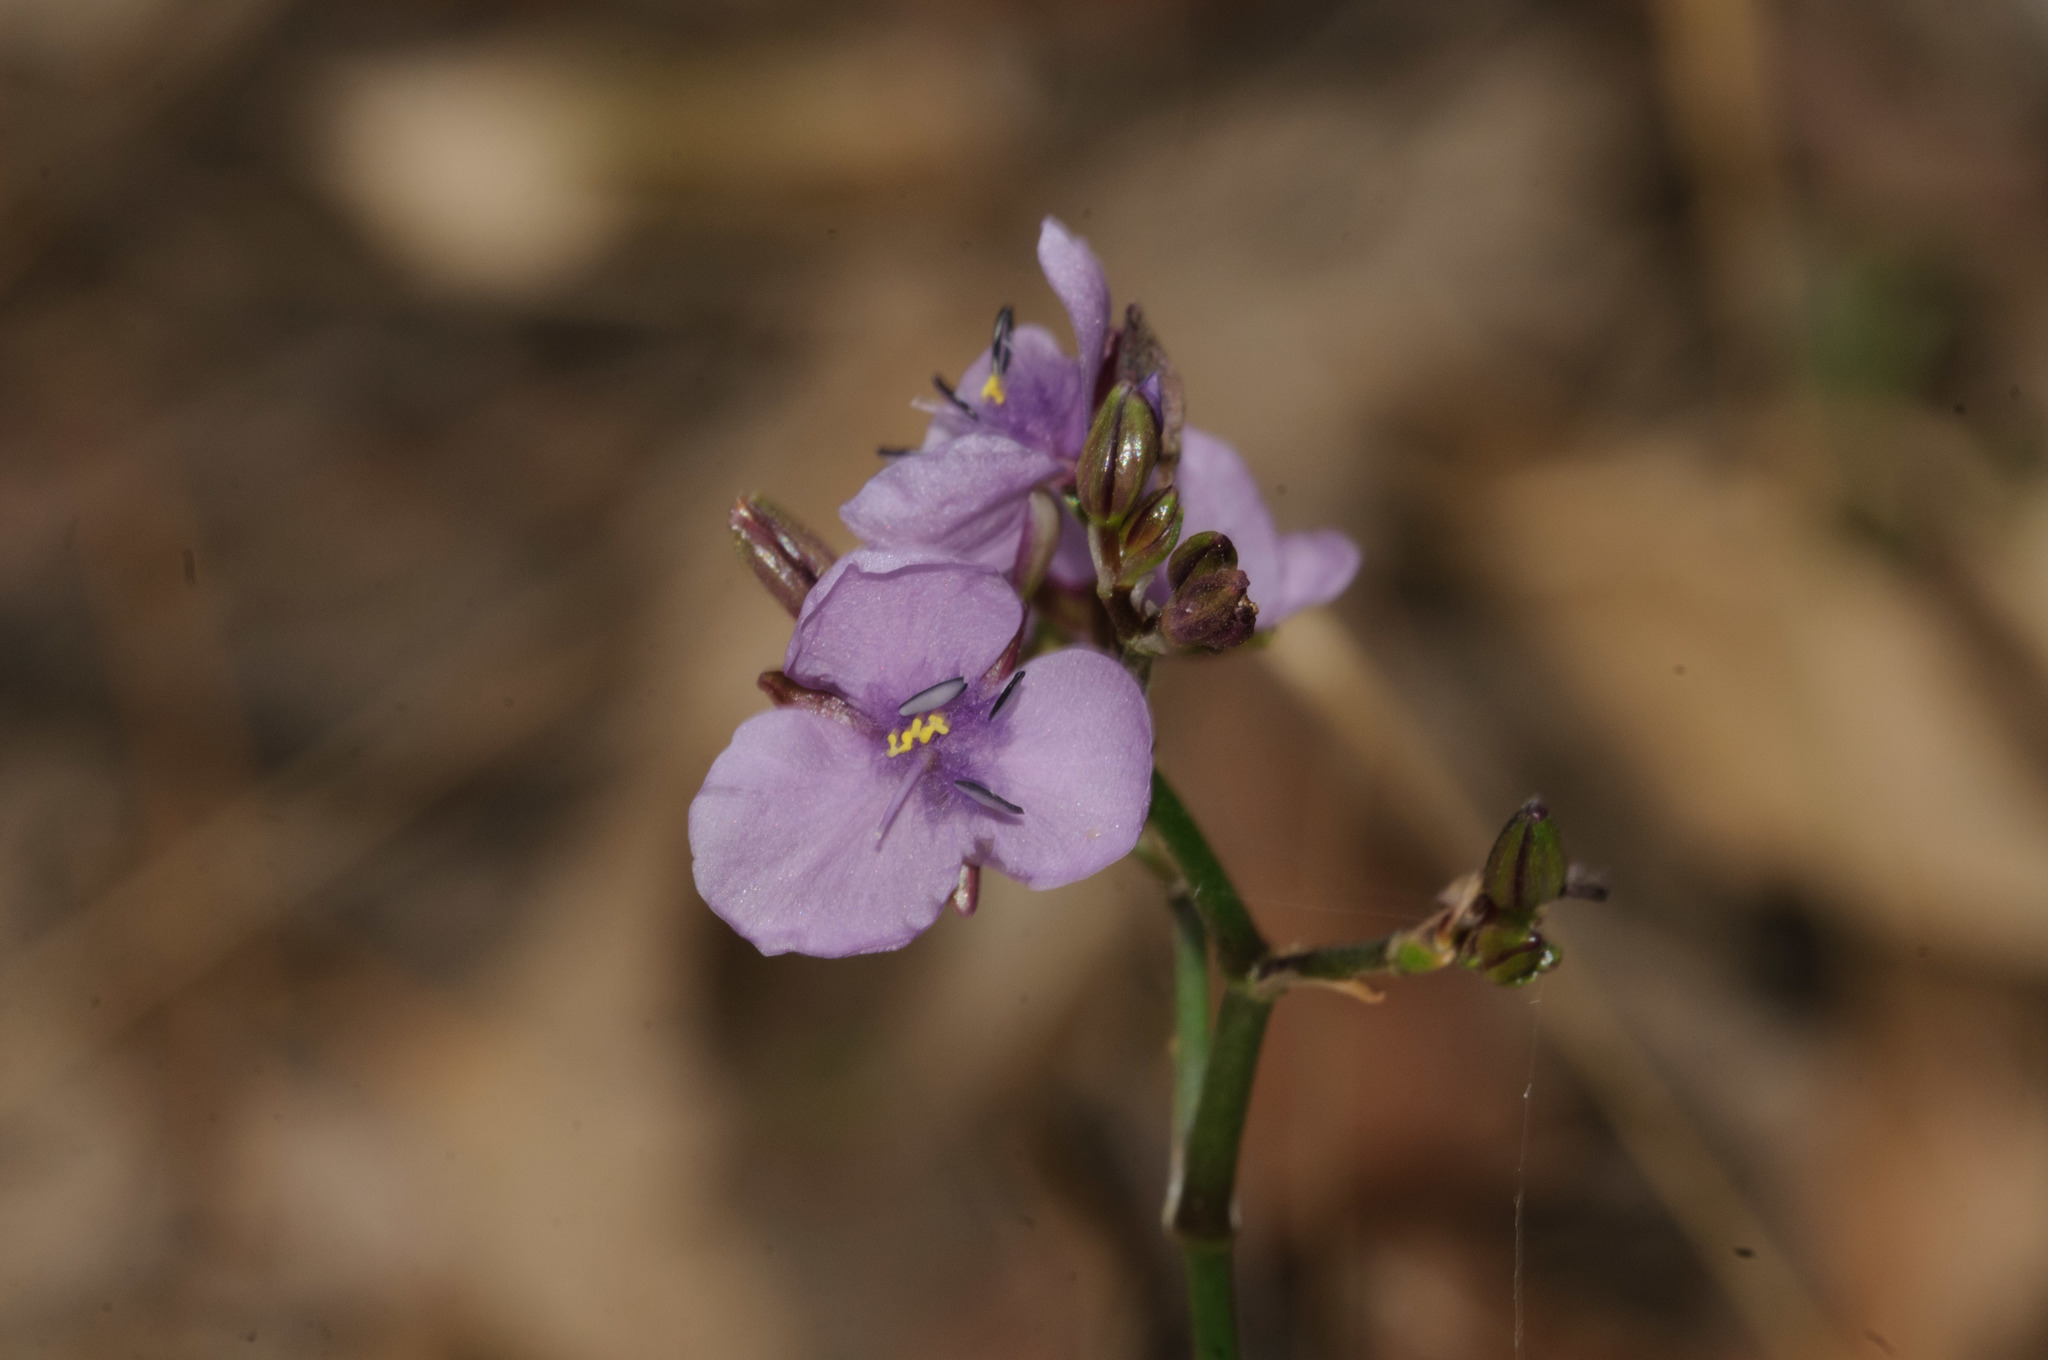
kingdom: Plantae
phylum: Tracheophyta
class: Liliopsida
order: Commelinales
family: Commelinaceae
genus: Murdannia
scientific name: Murdannia graminea
